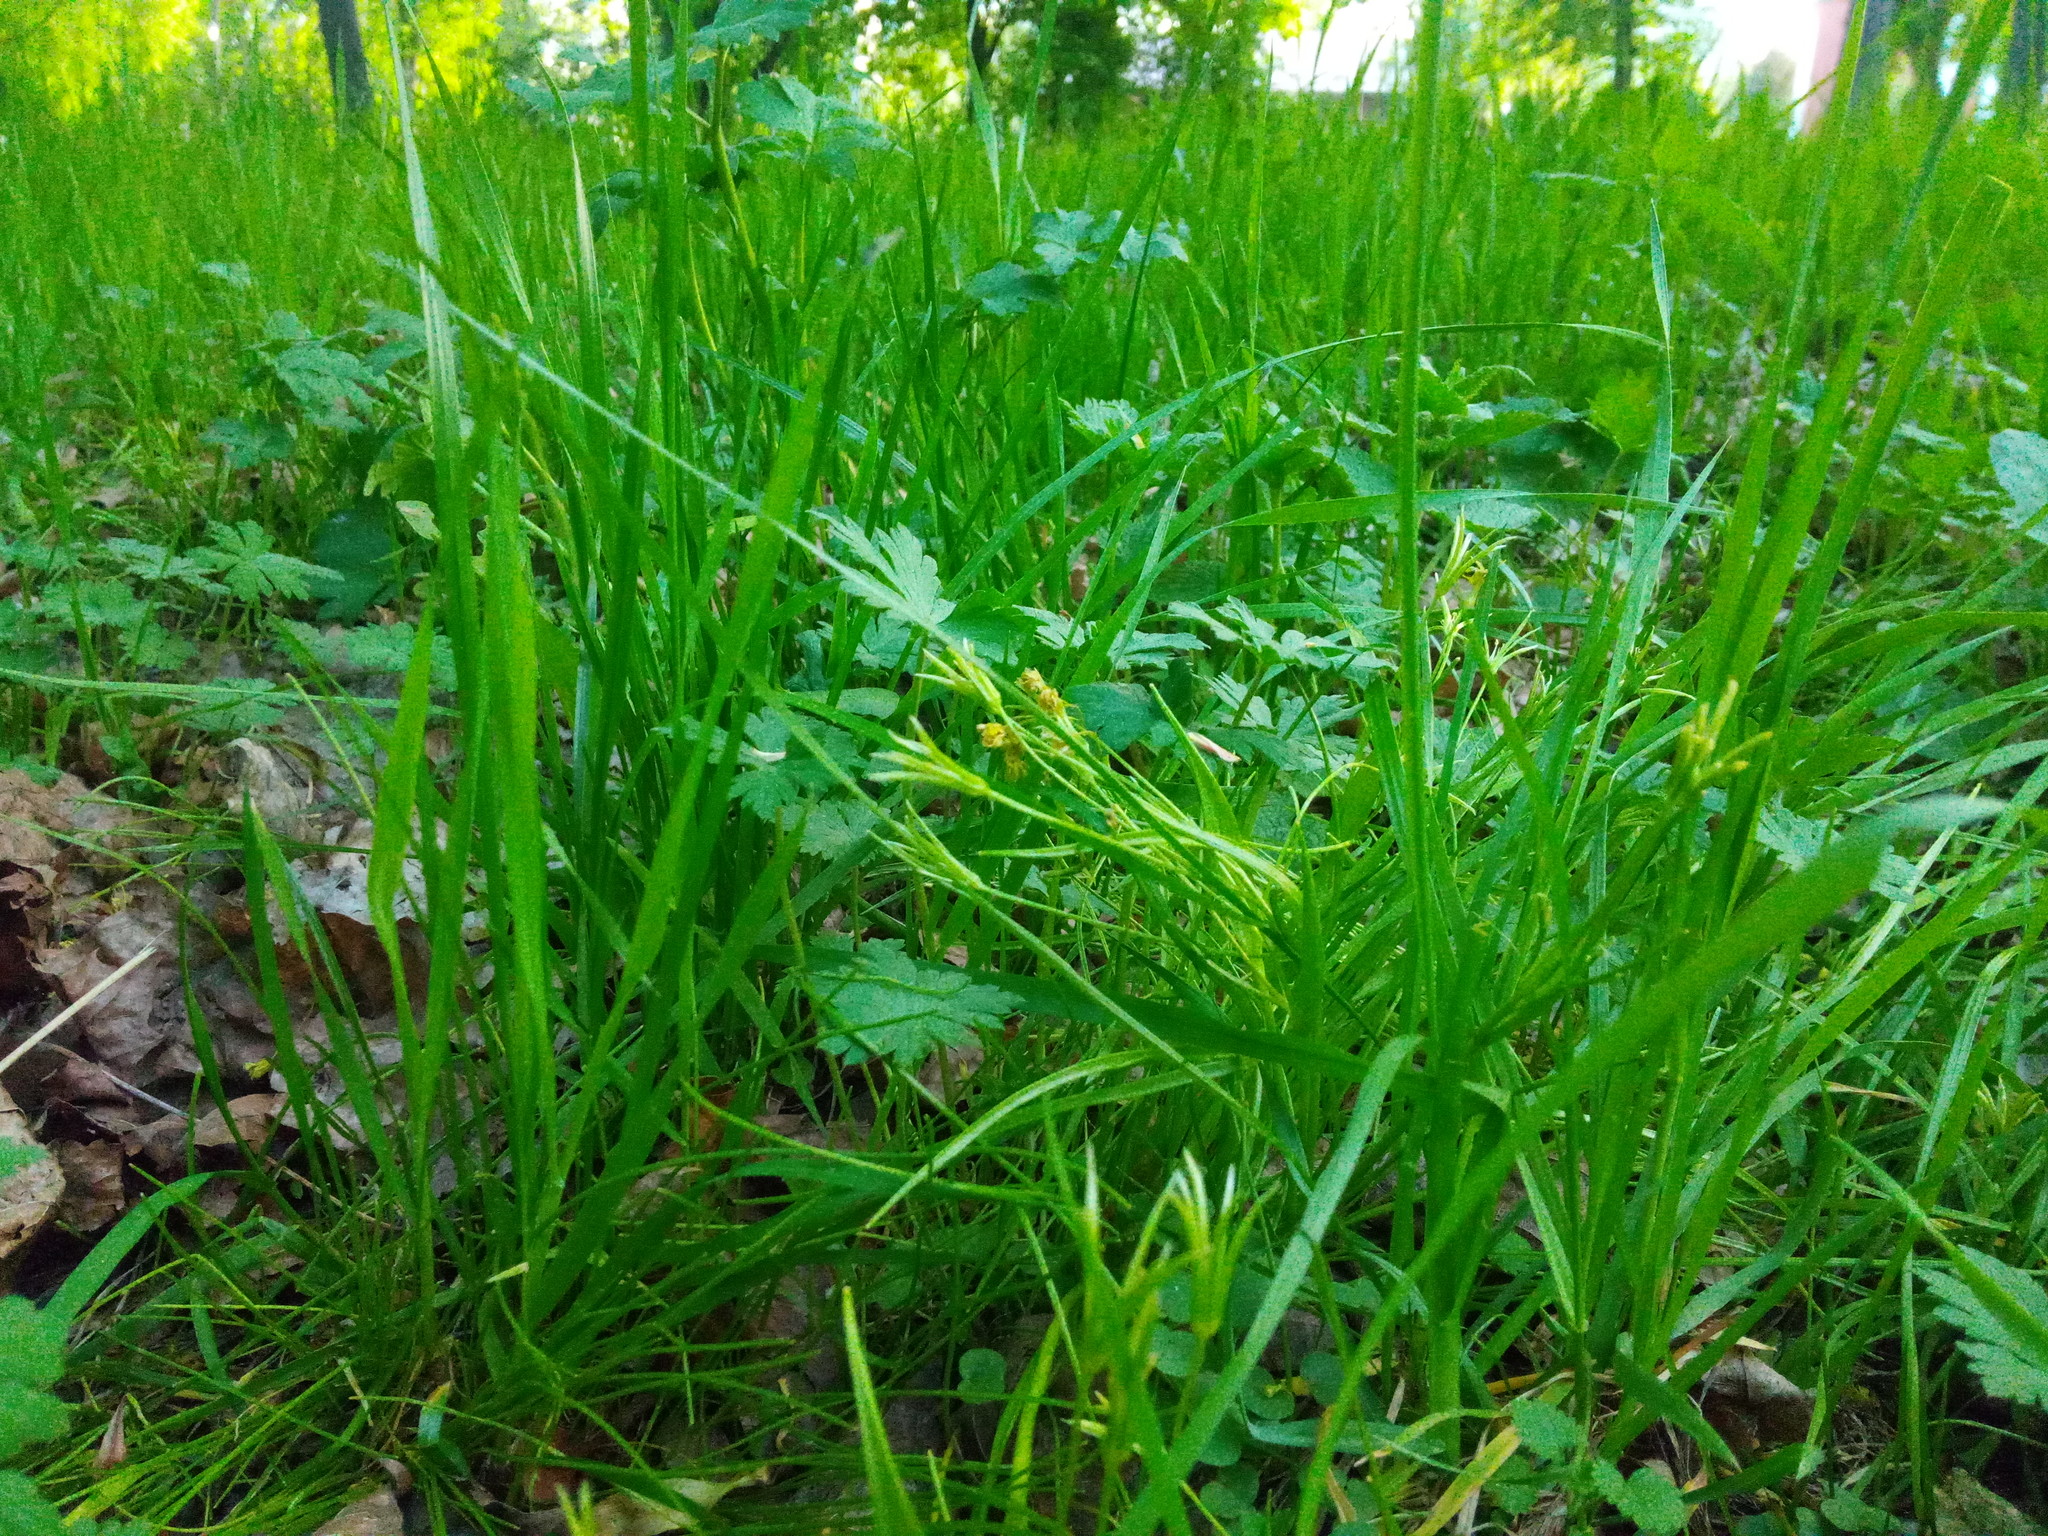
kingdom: Plantae
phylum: Tracheophyta
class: Liliopsida
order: Liliales
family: Liliaceae
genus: Gagea
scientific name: Gagea minima
